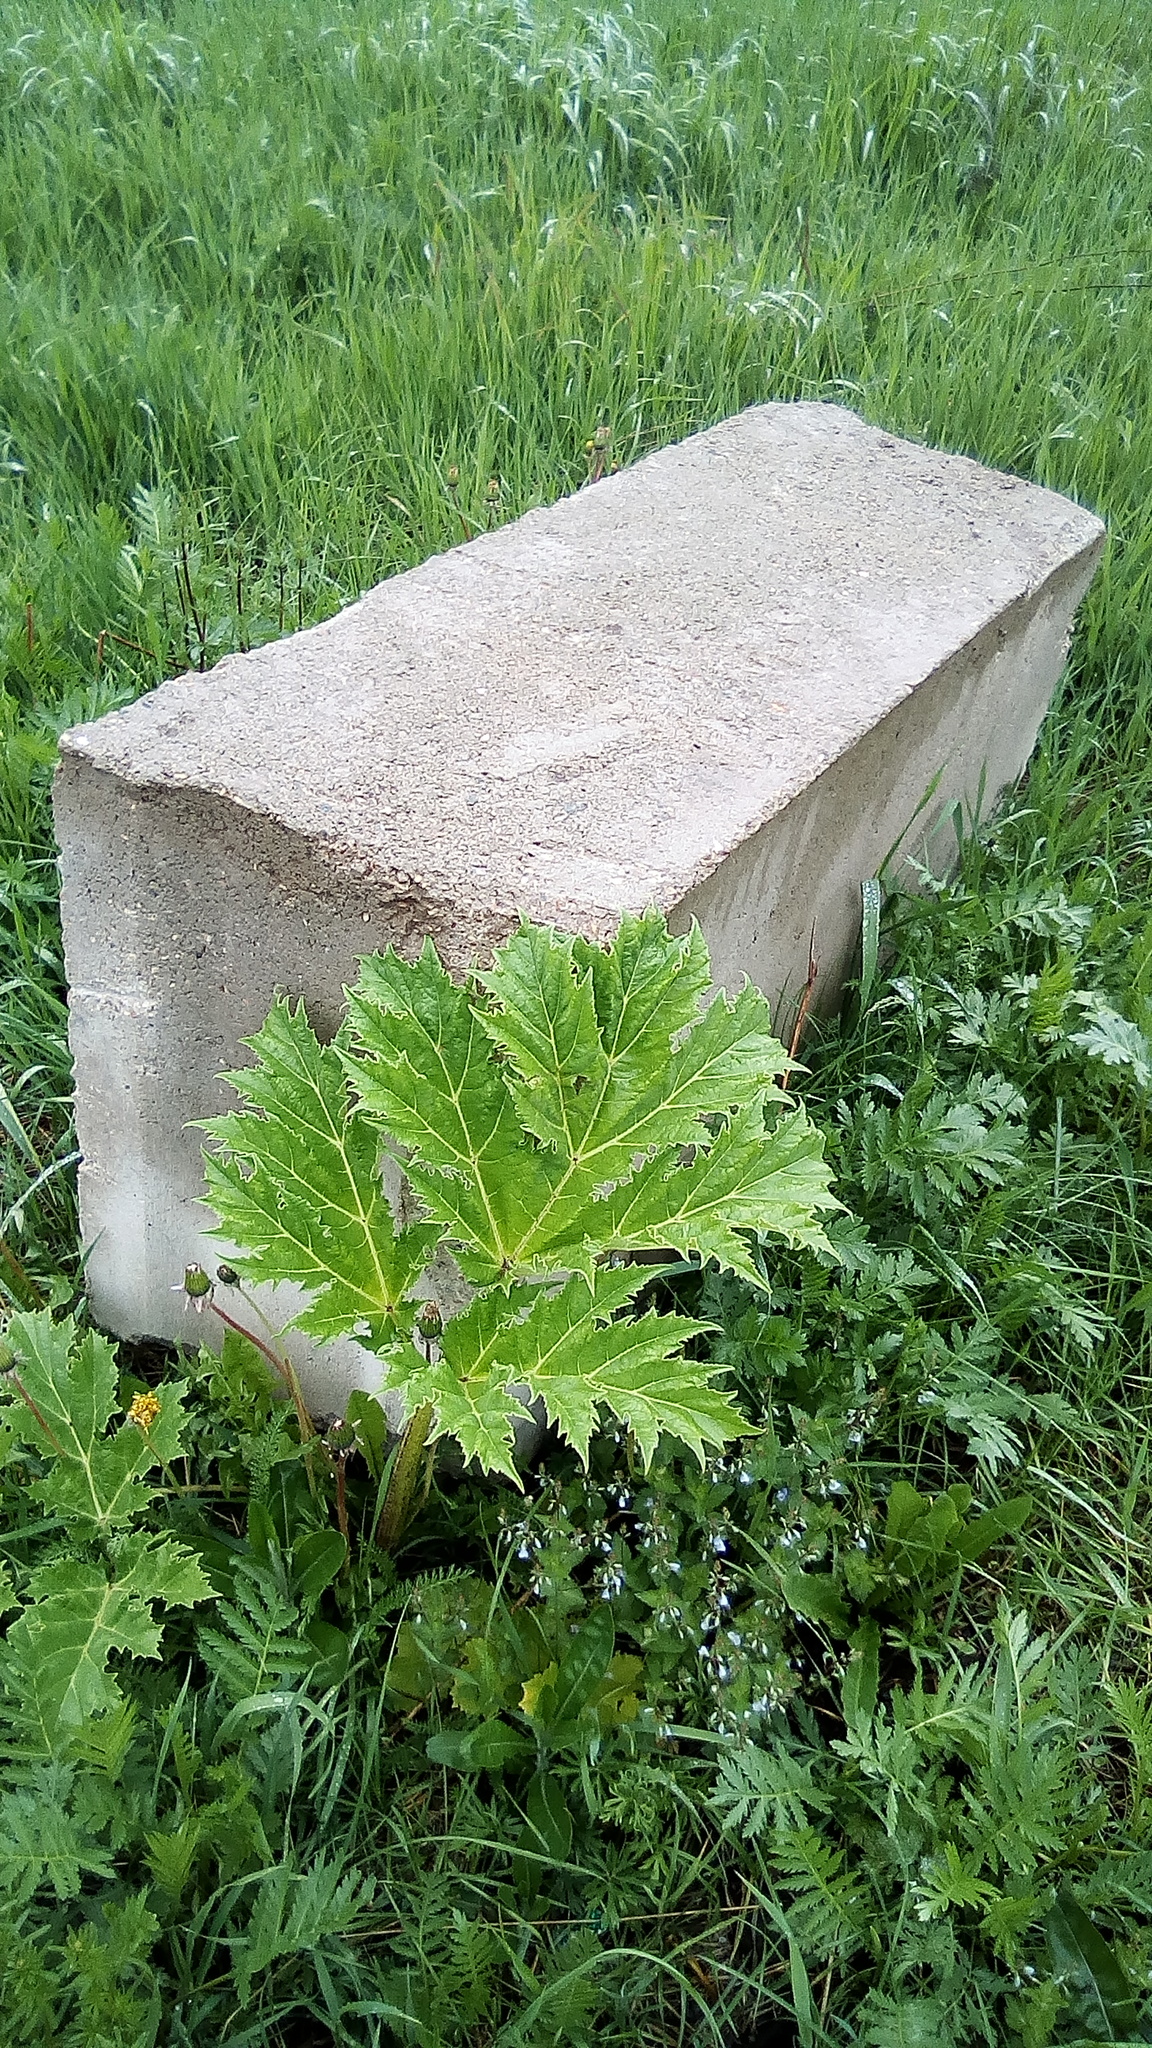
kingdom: Plantae
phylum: Tracheophyta
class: Magnoliopsida
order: Apiales
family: Apiaceae
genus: Heracleum
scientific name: Heracleum sosnowskyi
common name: Sosnowsky's hogweed
